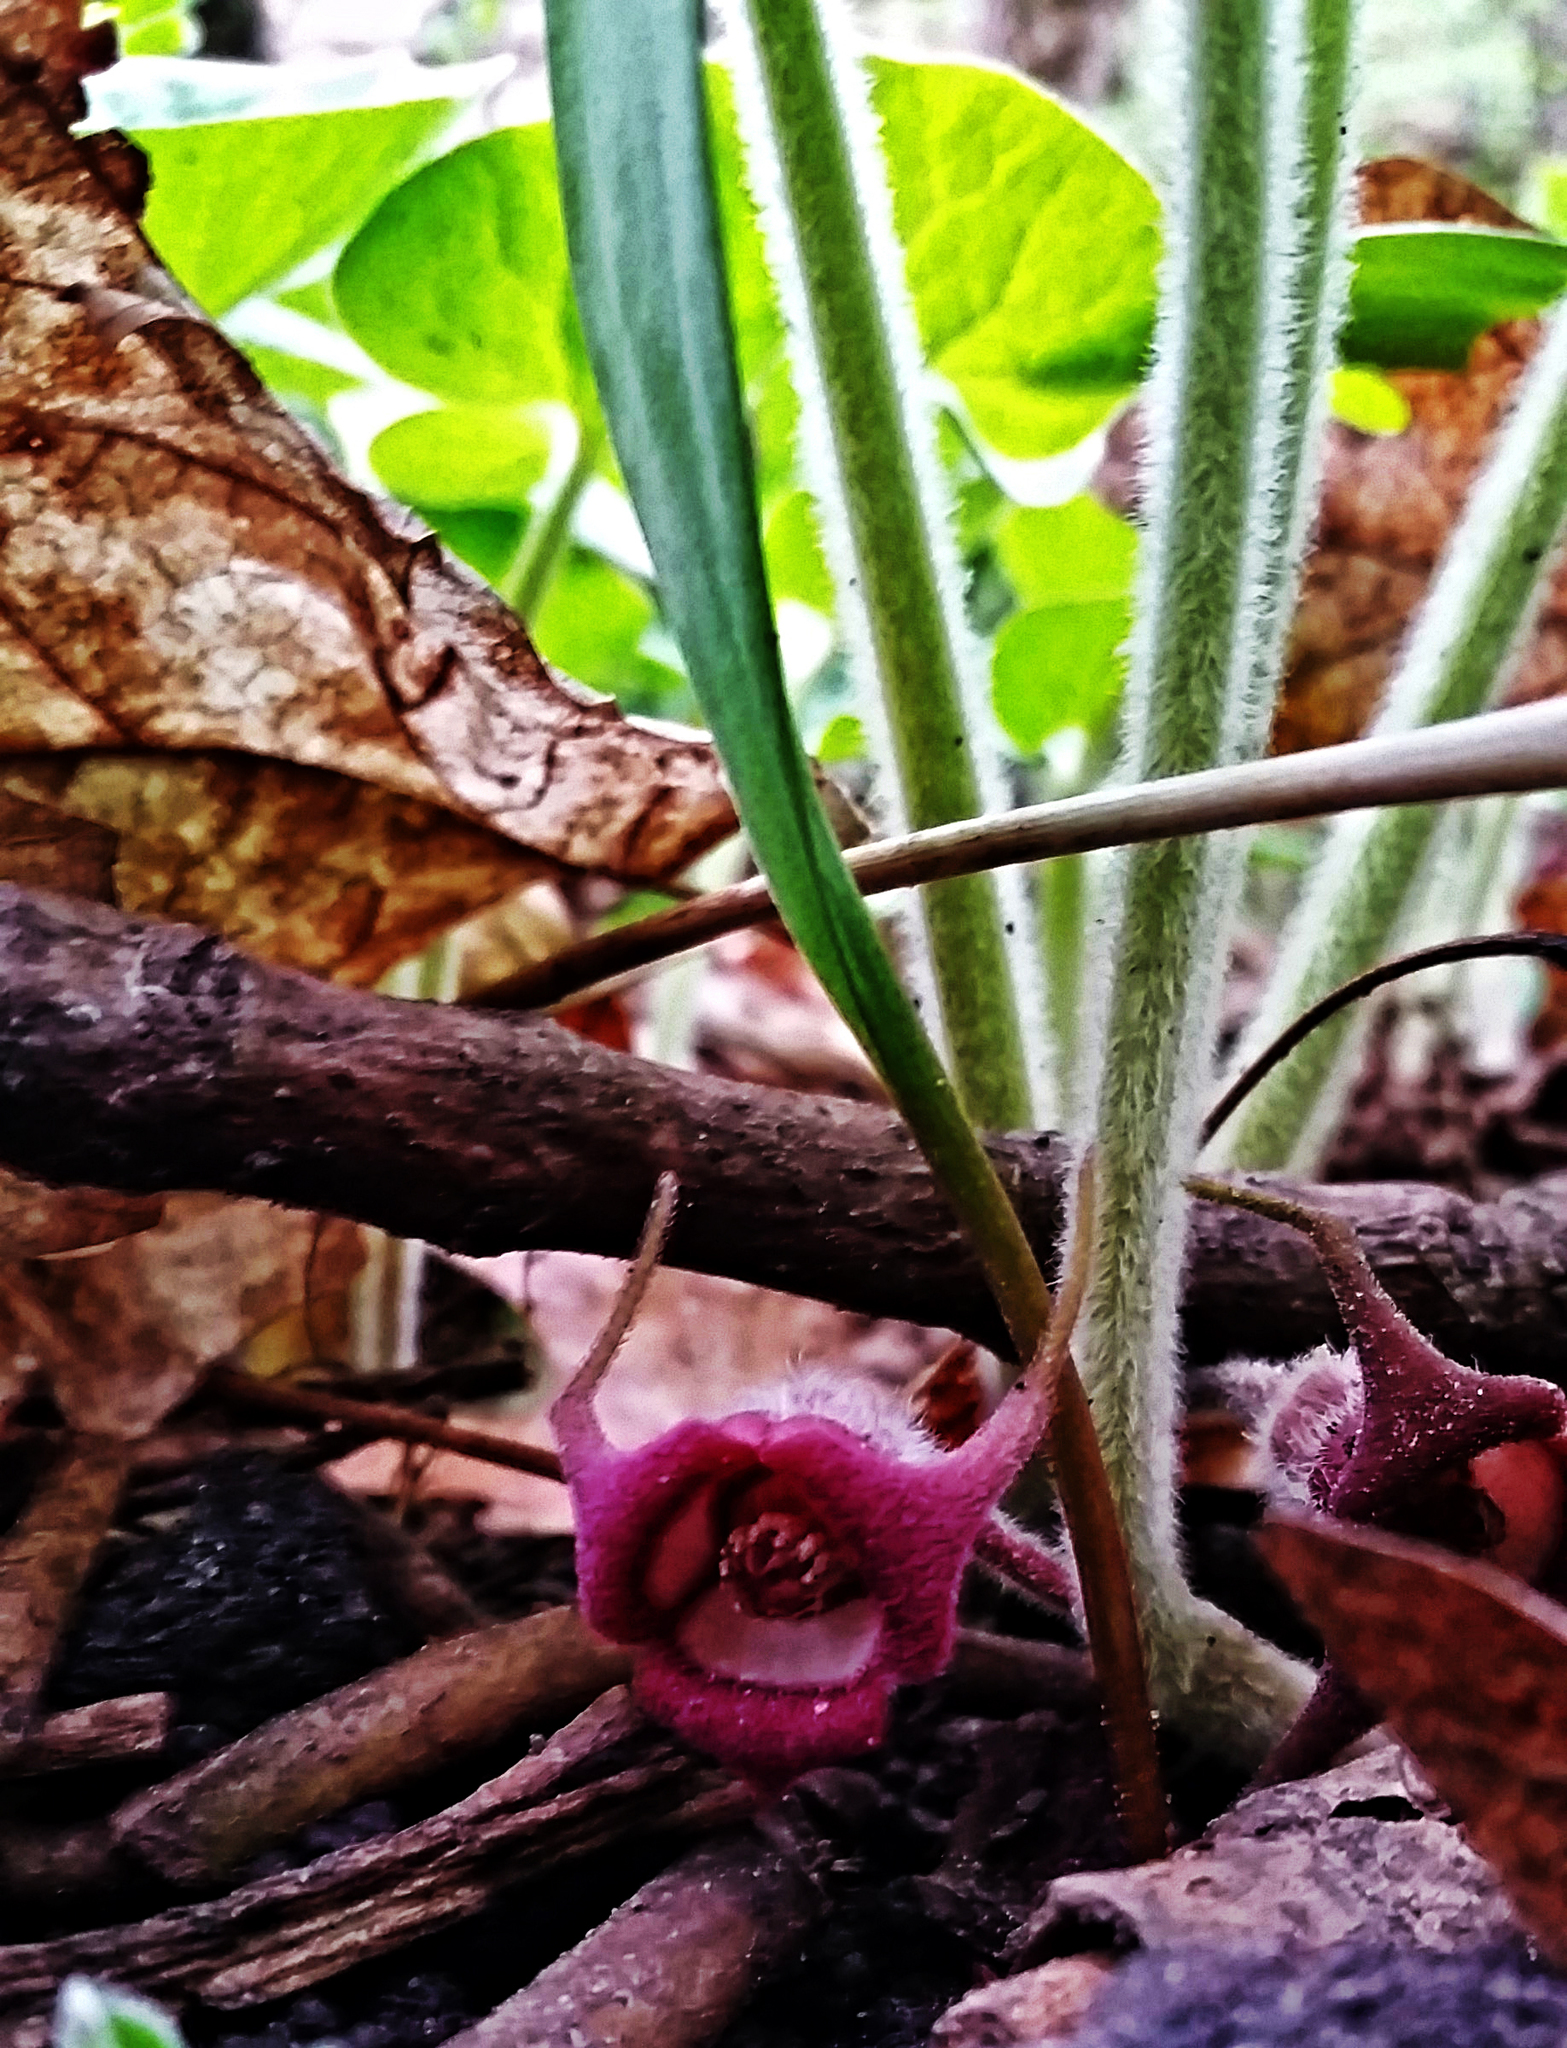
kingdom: Plantae
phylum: Tracheophyta
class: Magnoliopsida
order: Piperales
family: Aristolochiaceae
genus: Asarum
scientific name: Asarum canadense
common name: Wild ginger
